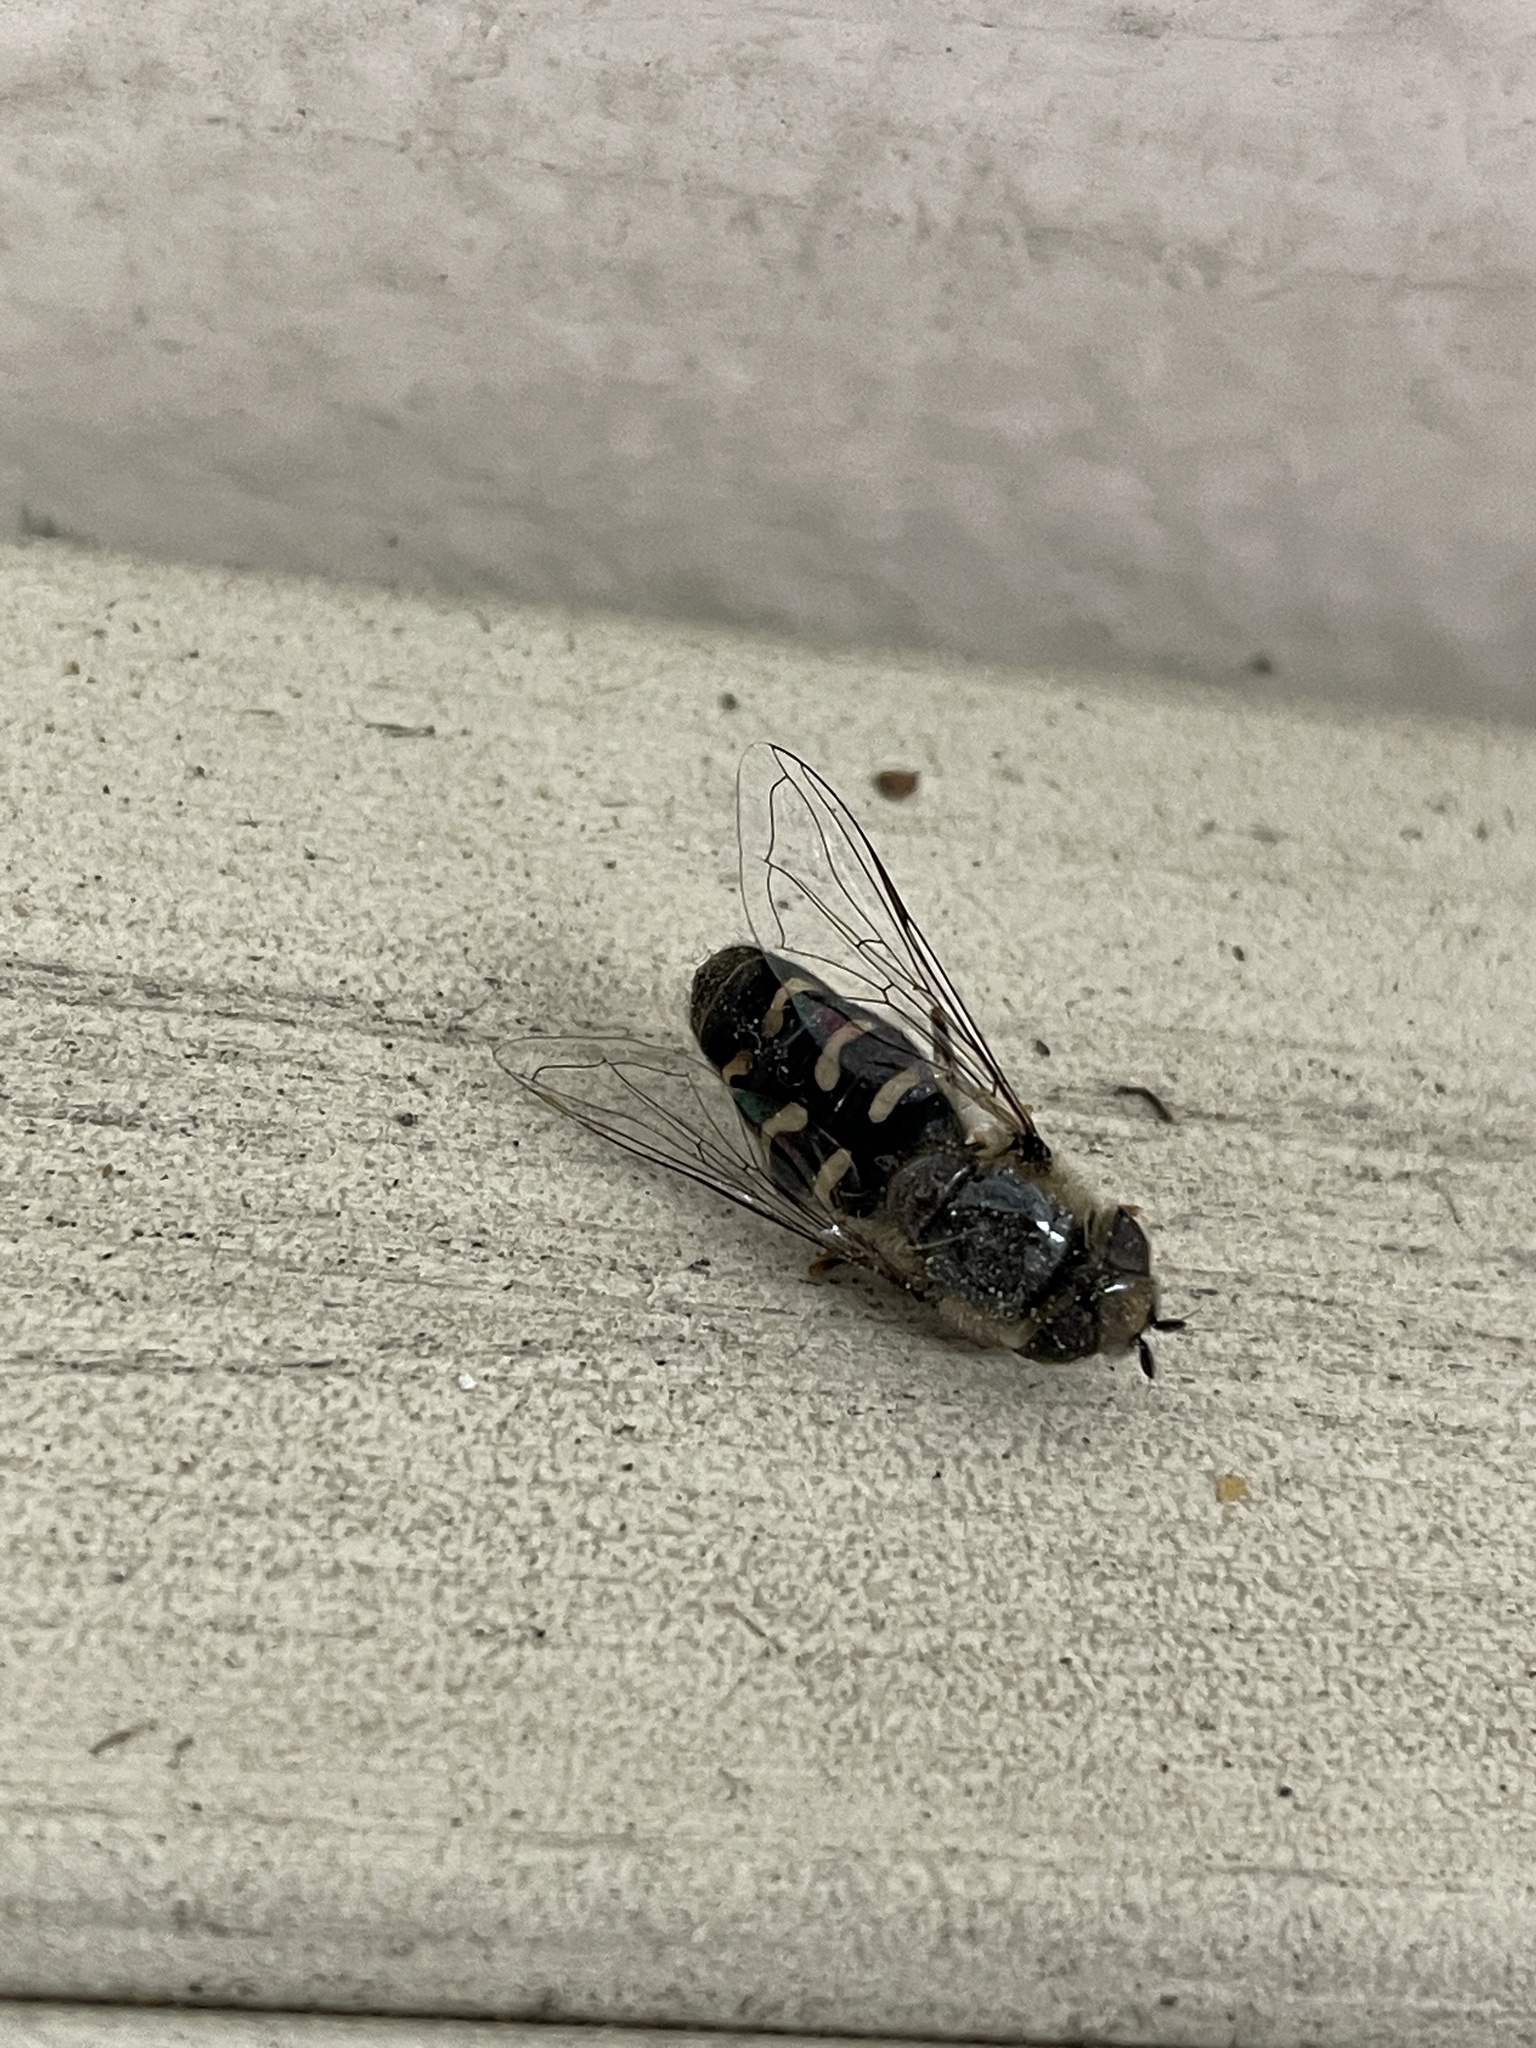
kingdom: Animalia
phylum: Arthropoda
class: Insecta
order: Diptera
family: Syrphidae
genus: Scaeva
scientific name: Scaeva affinis
